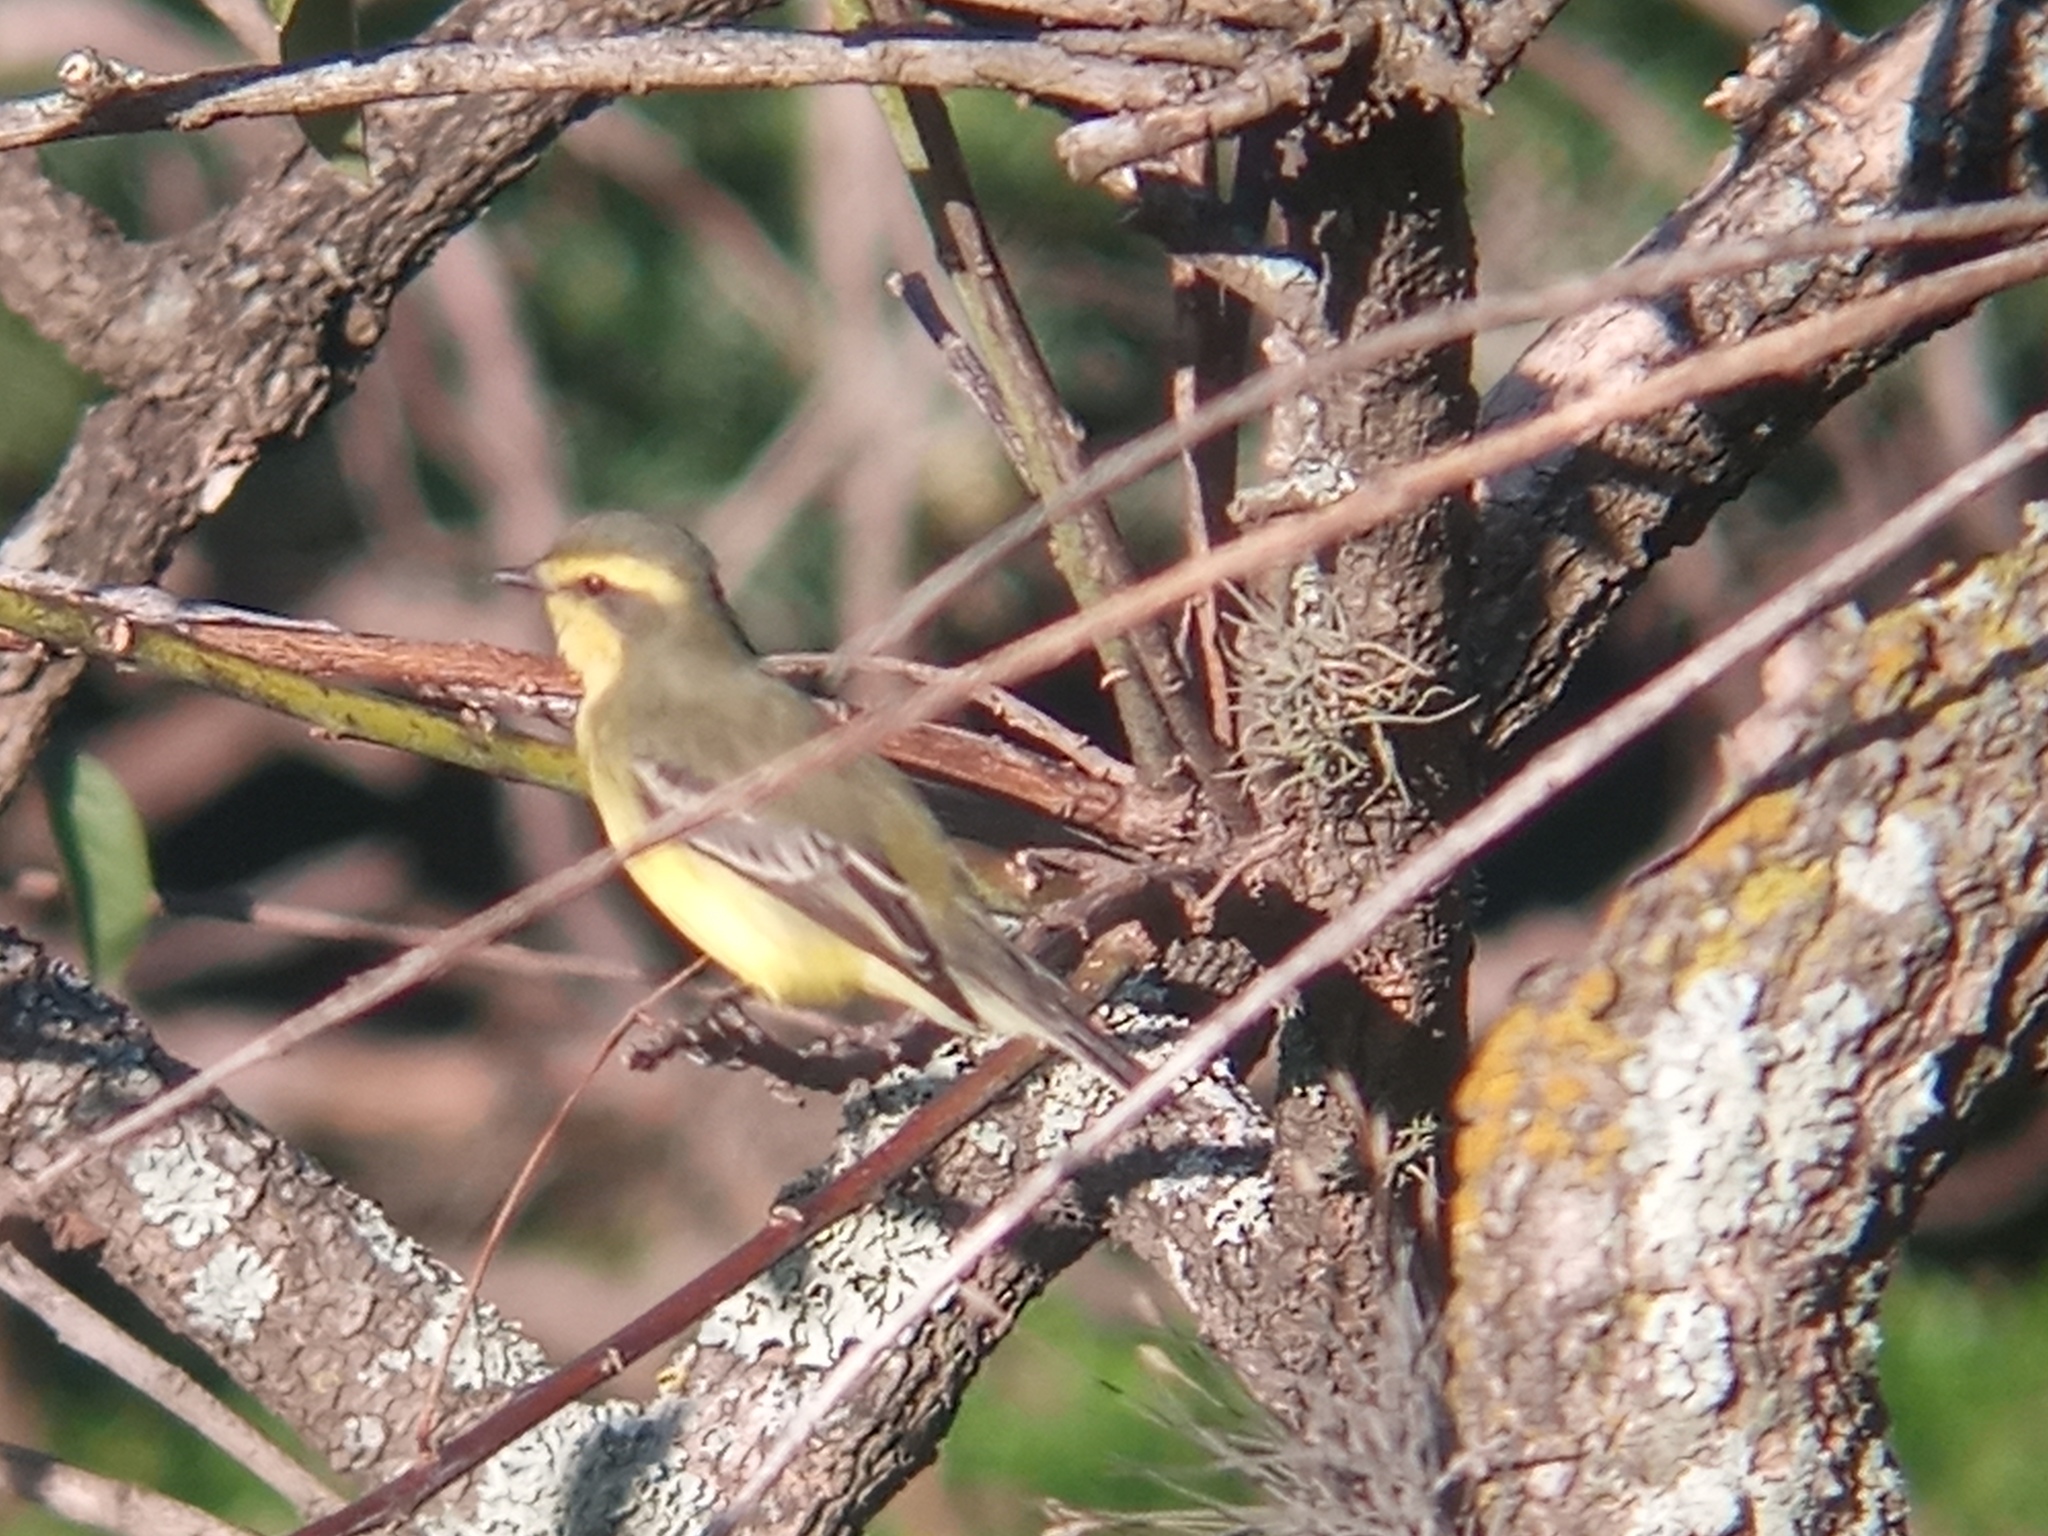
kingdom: Animalia
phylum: Chordata
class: Aves
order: Passeriformes
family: Tyrannidae
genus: Satrapa
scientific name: Satrapa icterophrys
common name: Yellow-browed tyrant
